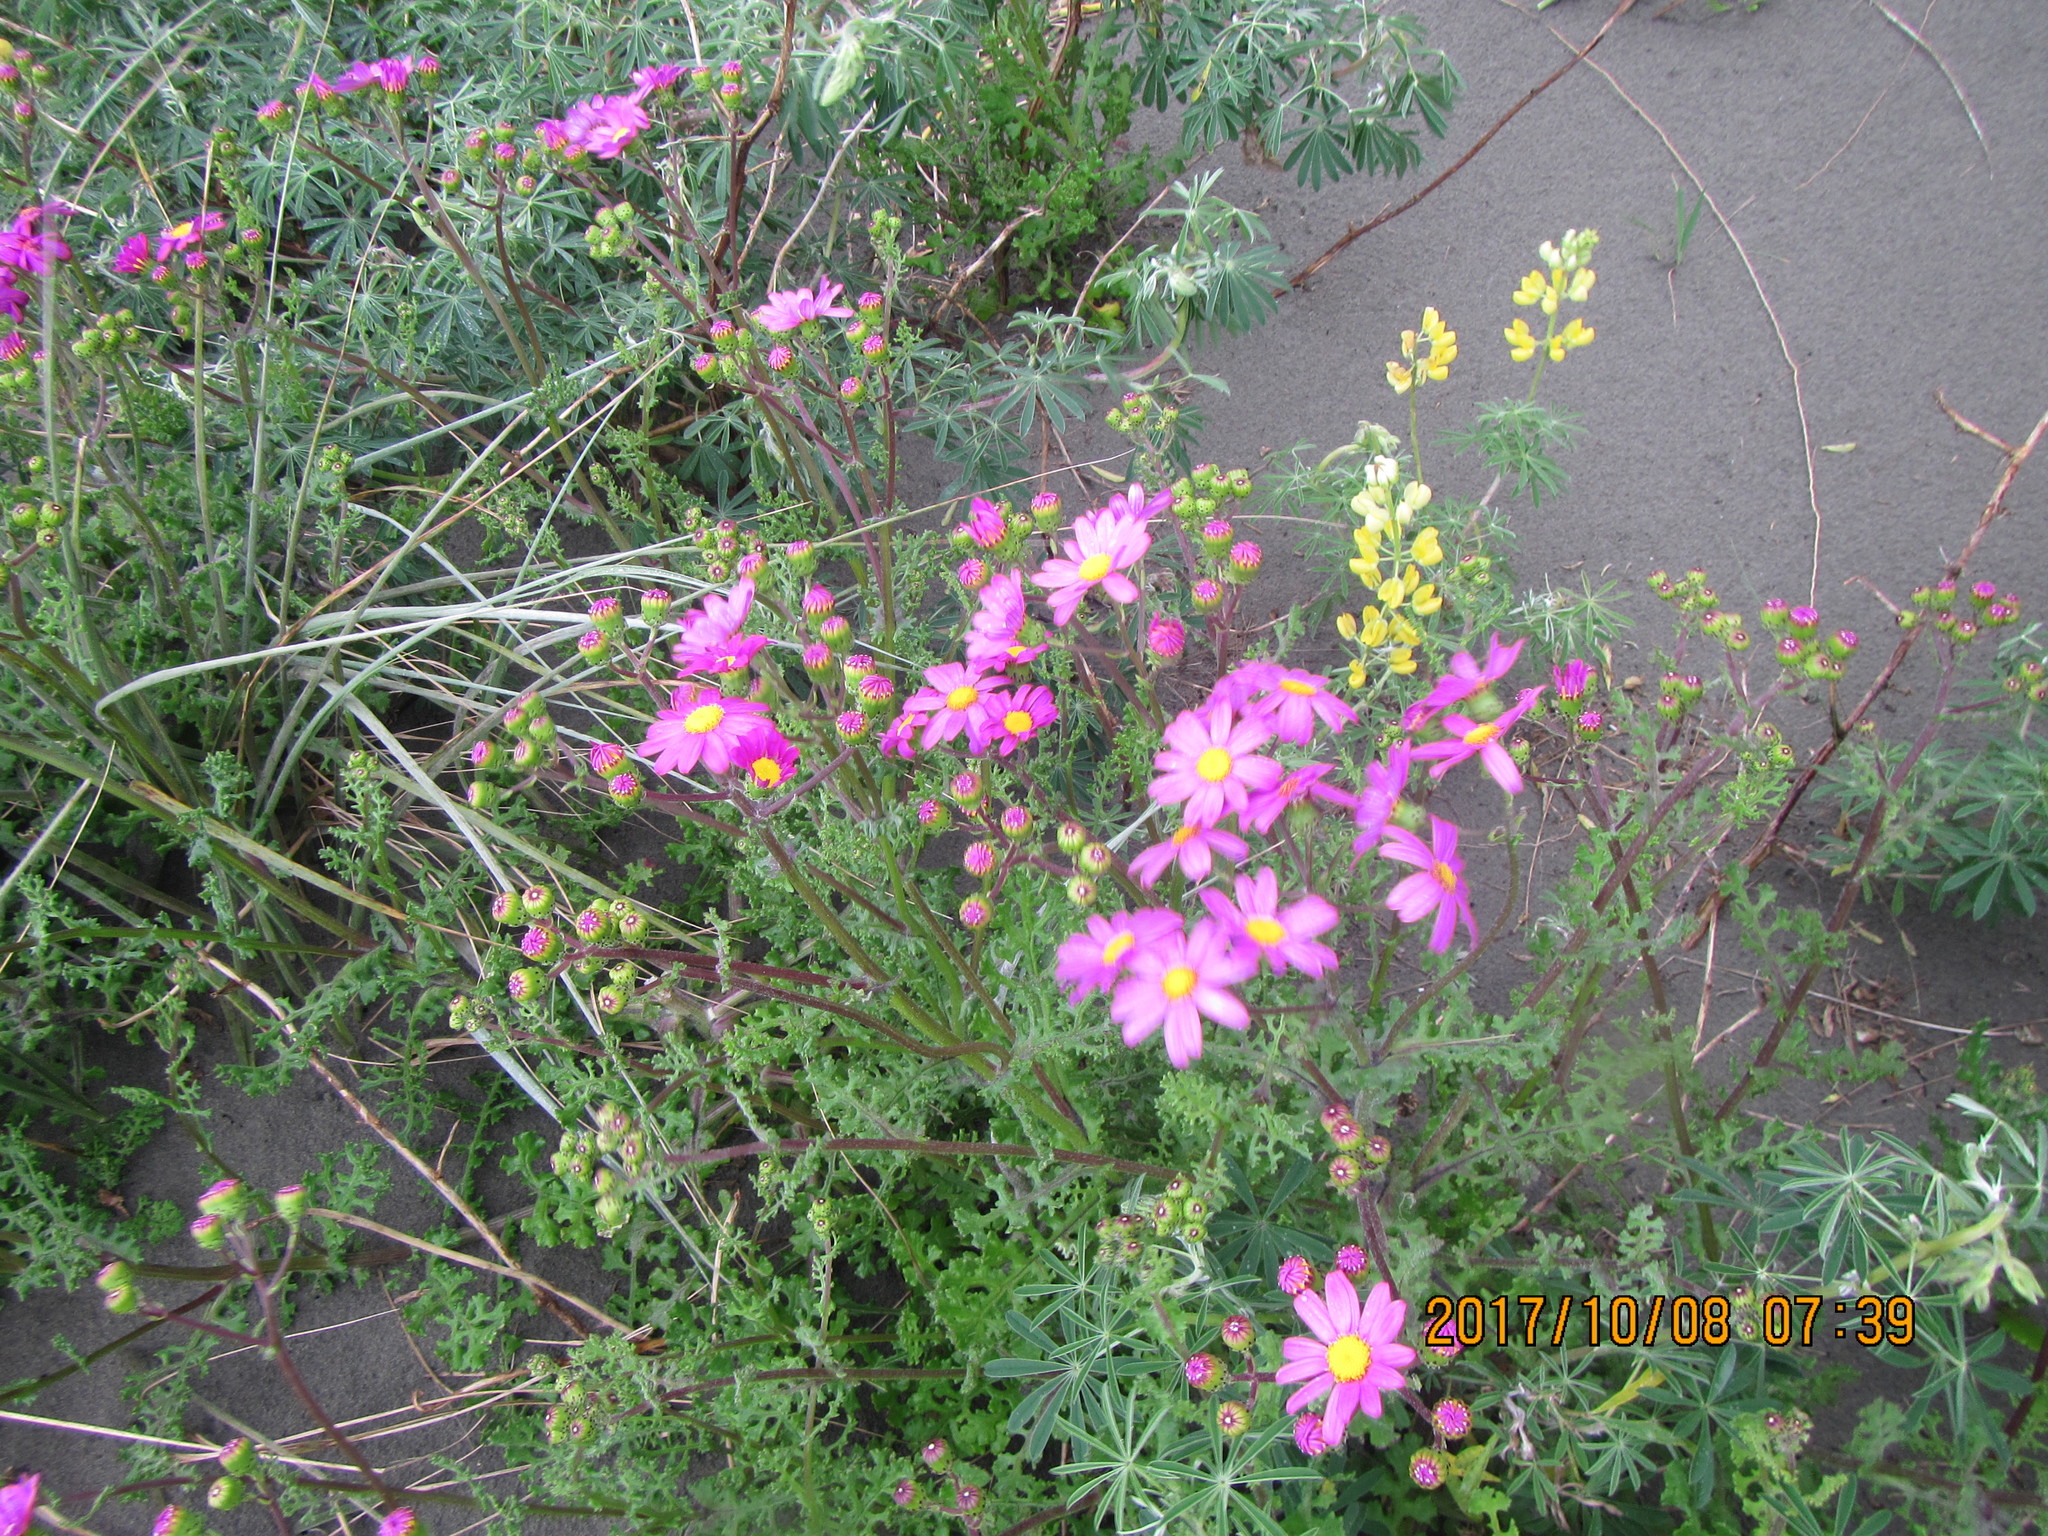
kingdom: Plantae
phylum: Tracheophyta
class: Magnoliopsida
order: Asterales
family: Asteraceae
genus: Senecio
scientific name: Senecio elegans
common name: Purple groundsel
